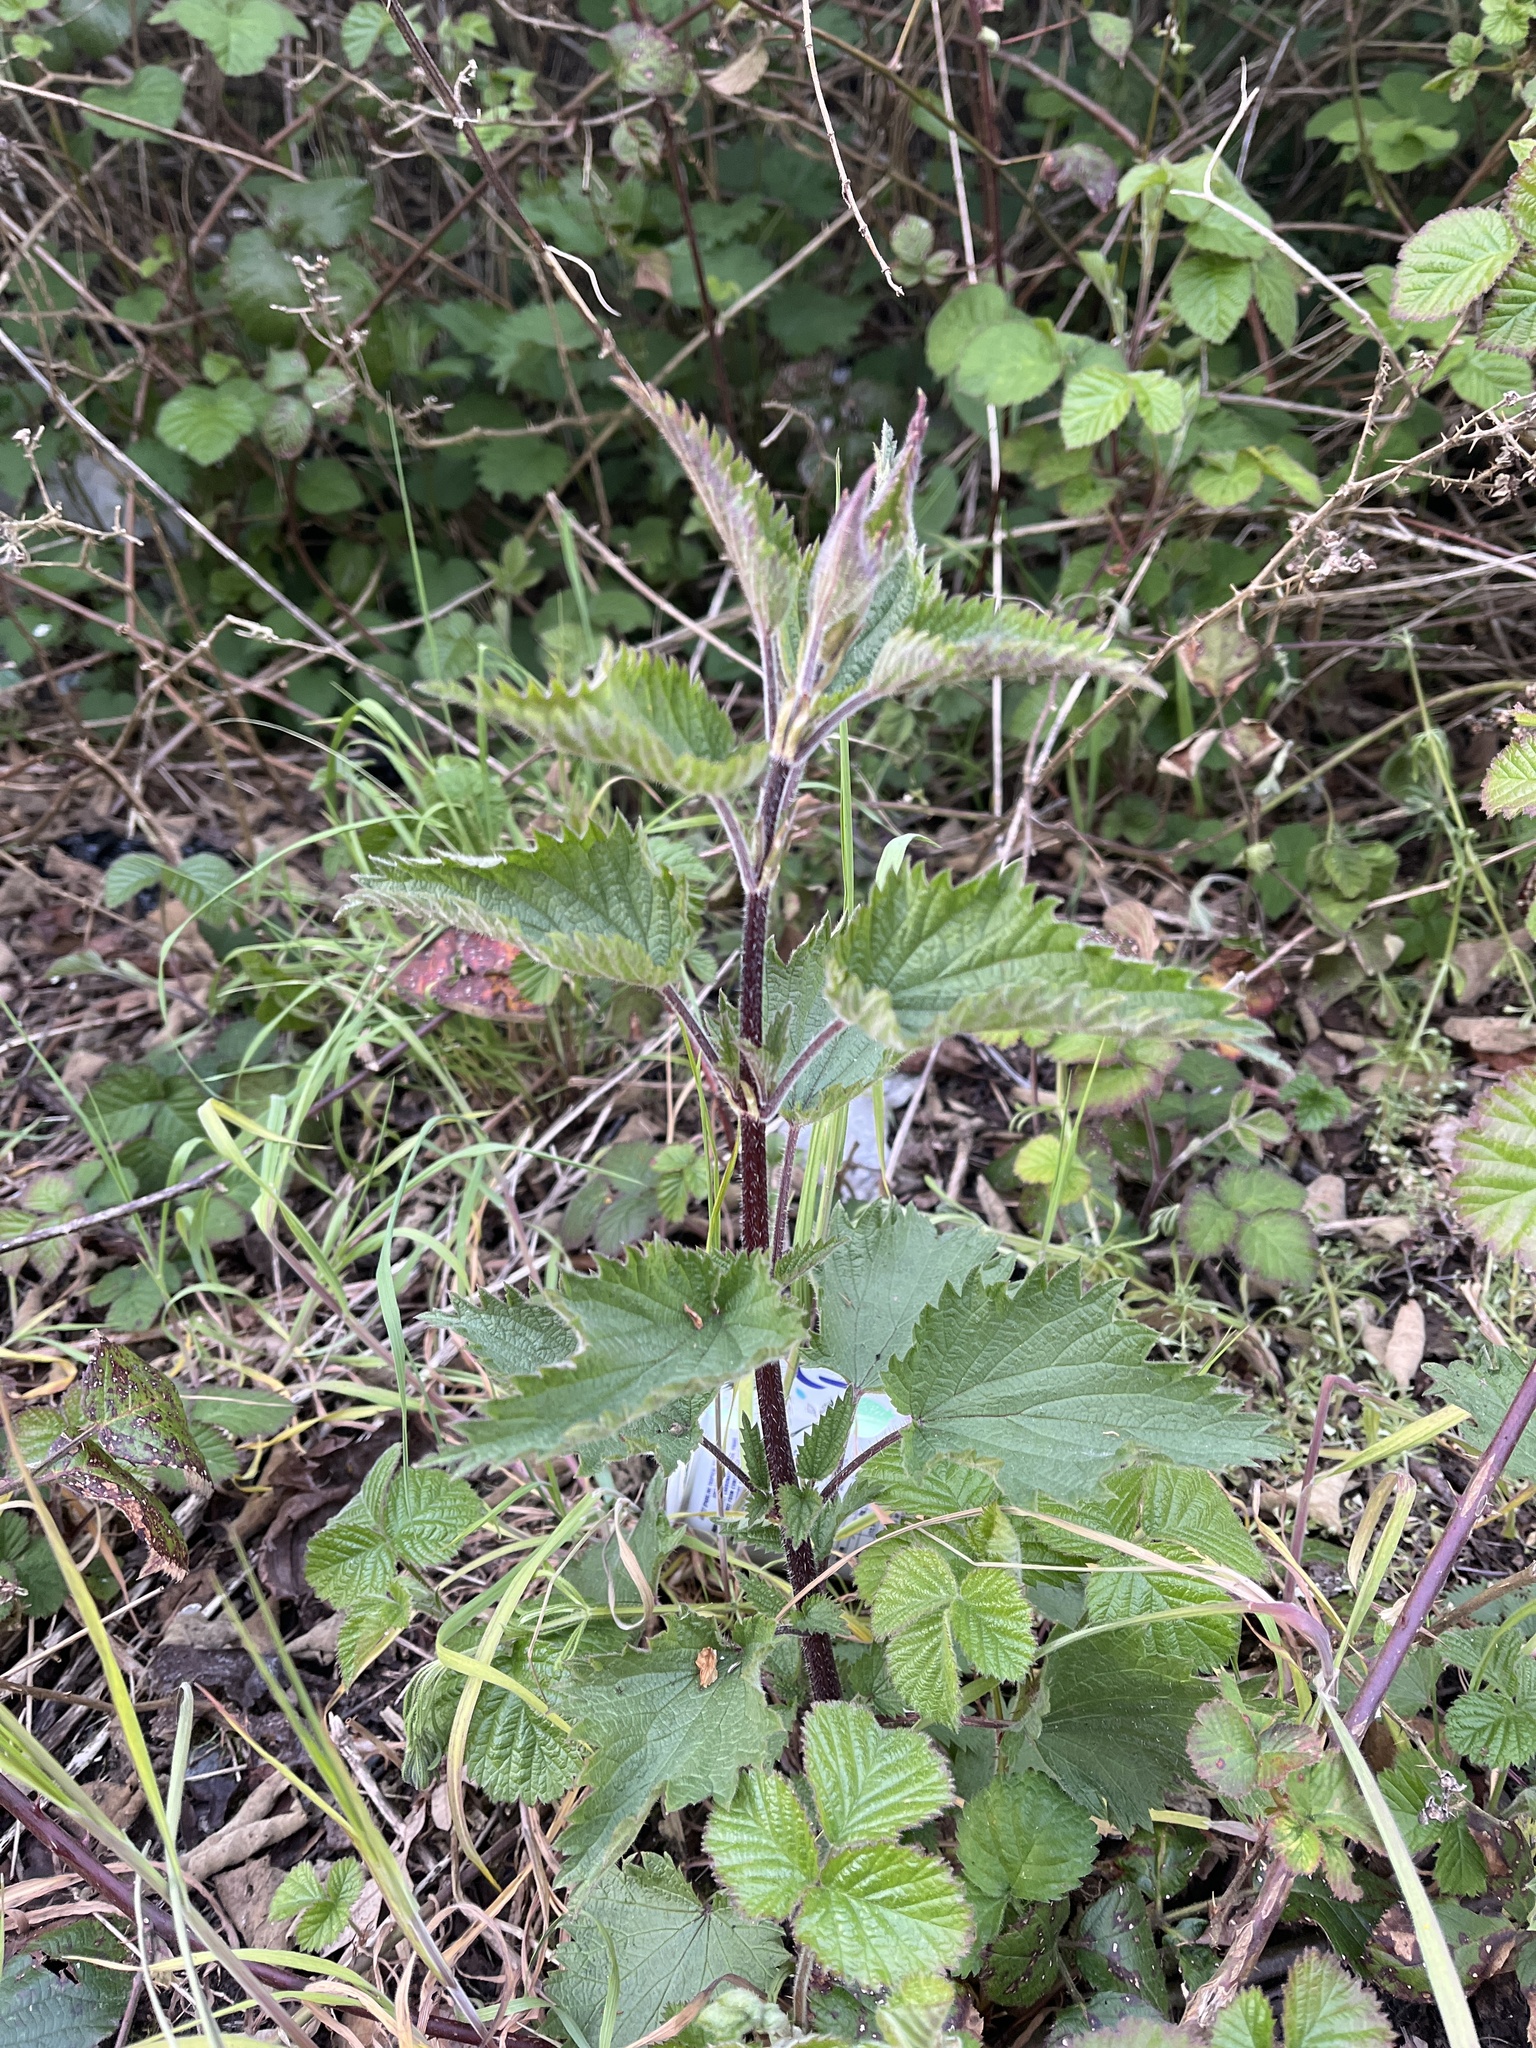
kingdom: Plantae
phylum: Tracheophyta
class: Magnoliopsida
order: Rosales
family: Urticaceae
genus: Urtica
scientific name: Urtica dioica
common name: Common nettle
